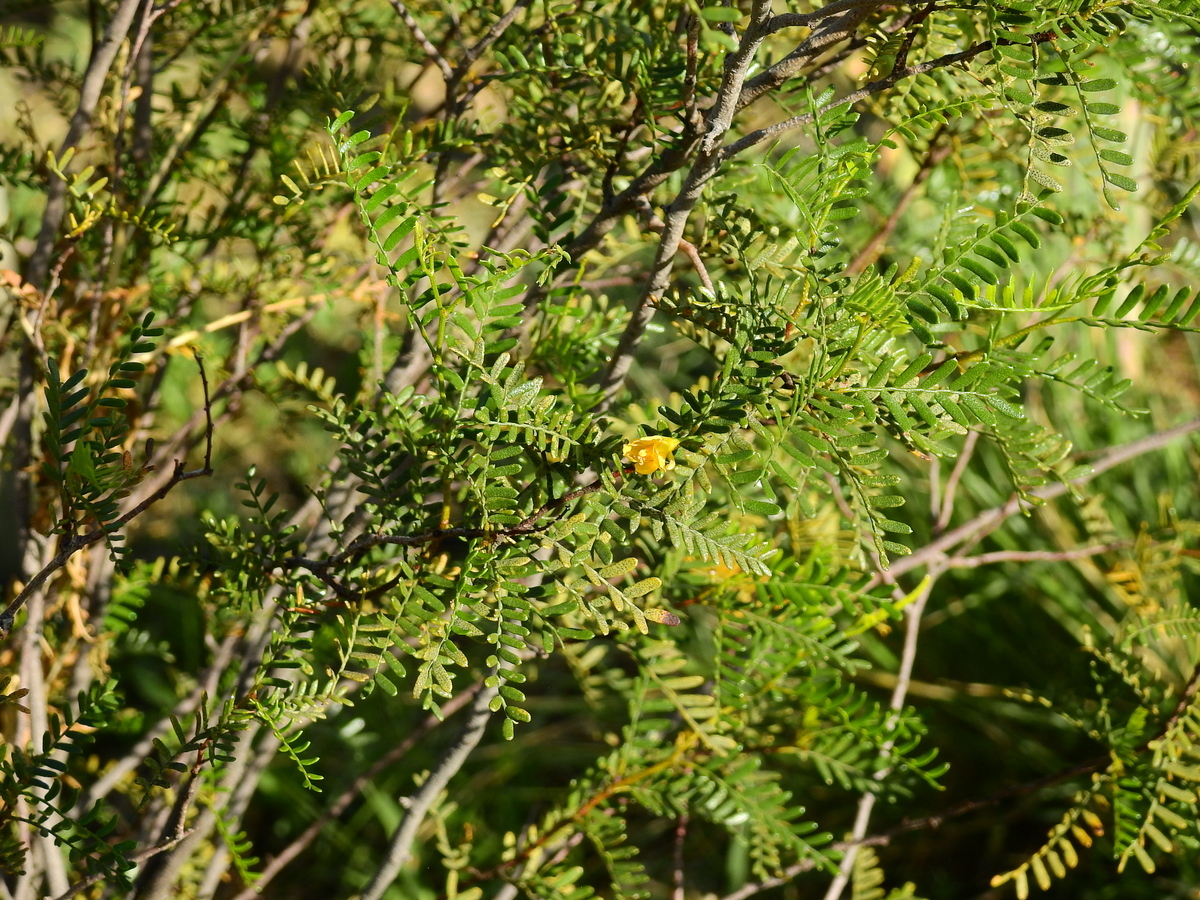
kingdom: Plantae
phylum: Tracheophyta
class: Magnoliopsida
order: Fabales
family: Fabaceae
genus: Zuccagnia
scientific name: Zuccagnia punctata
